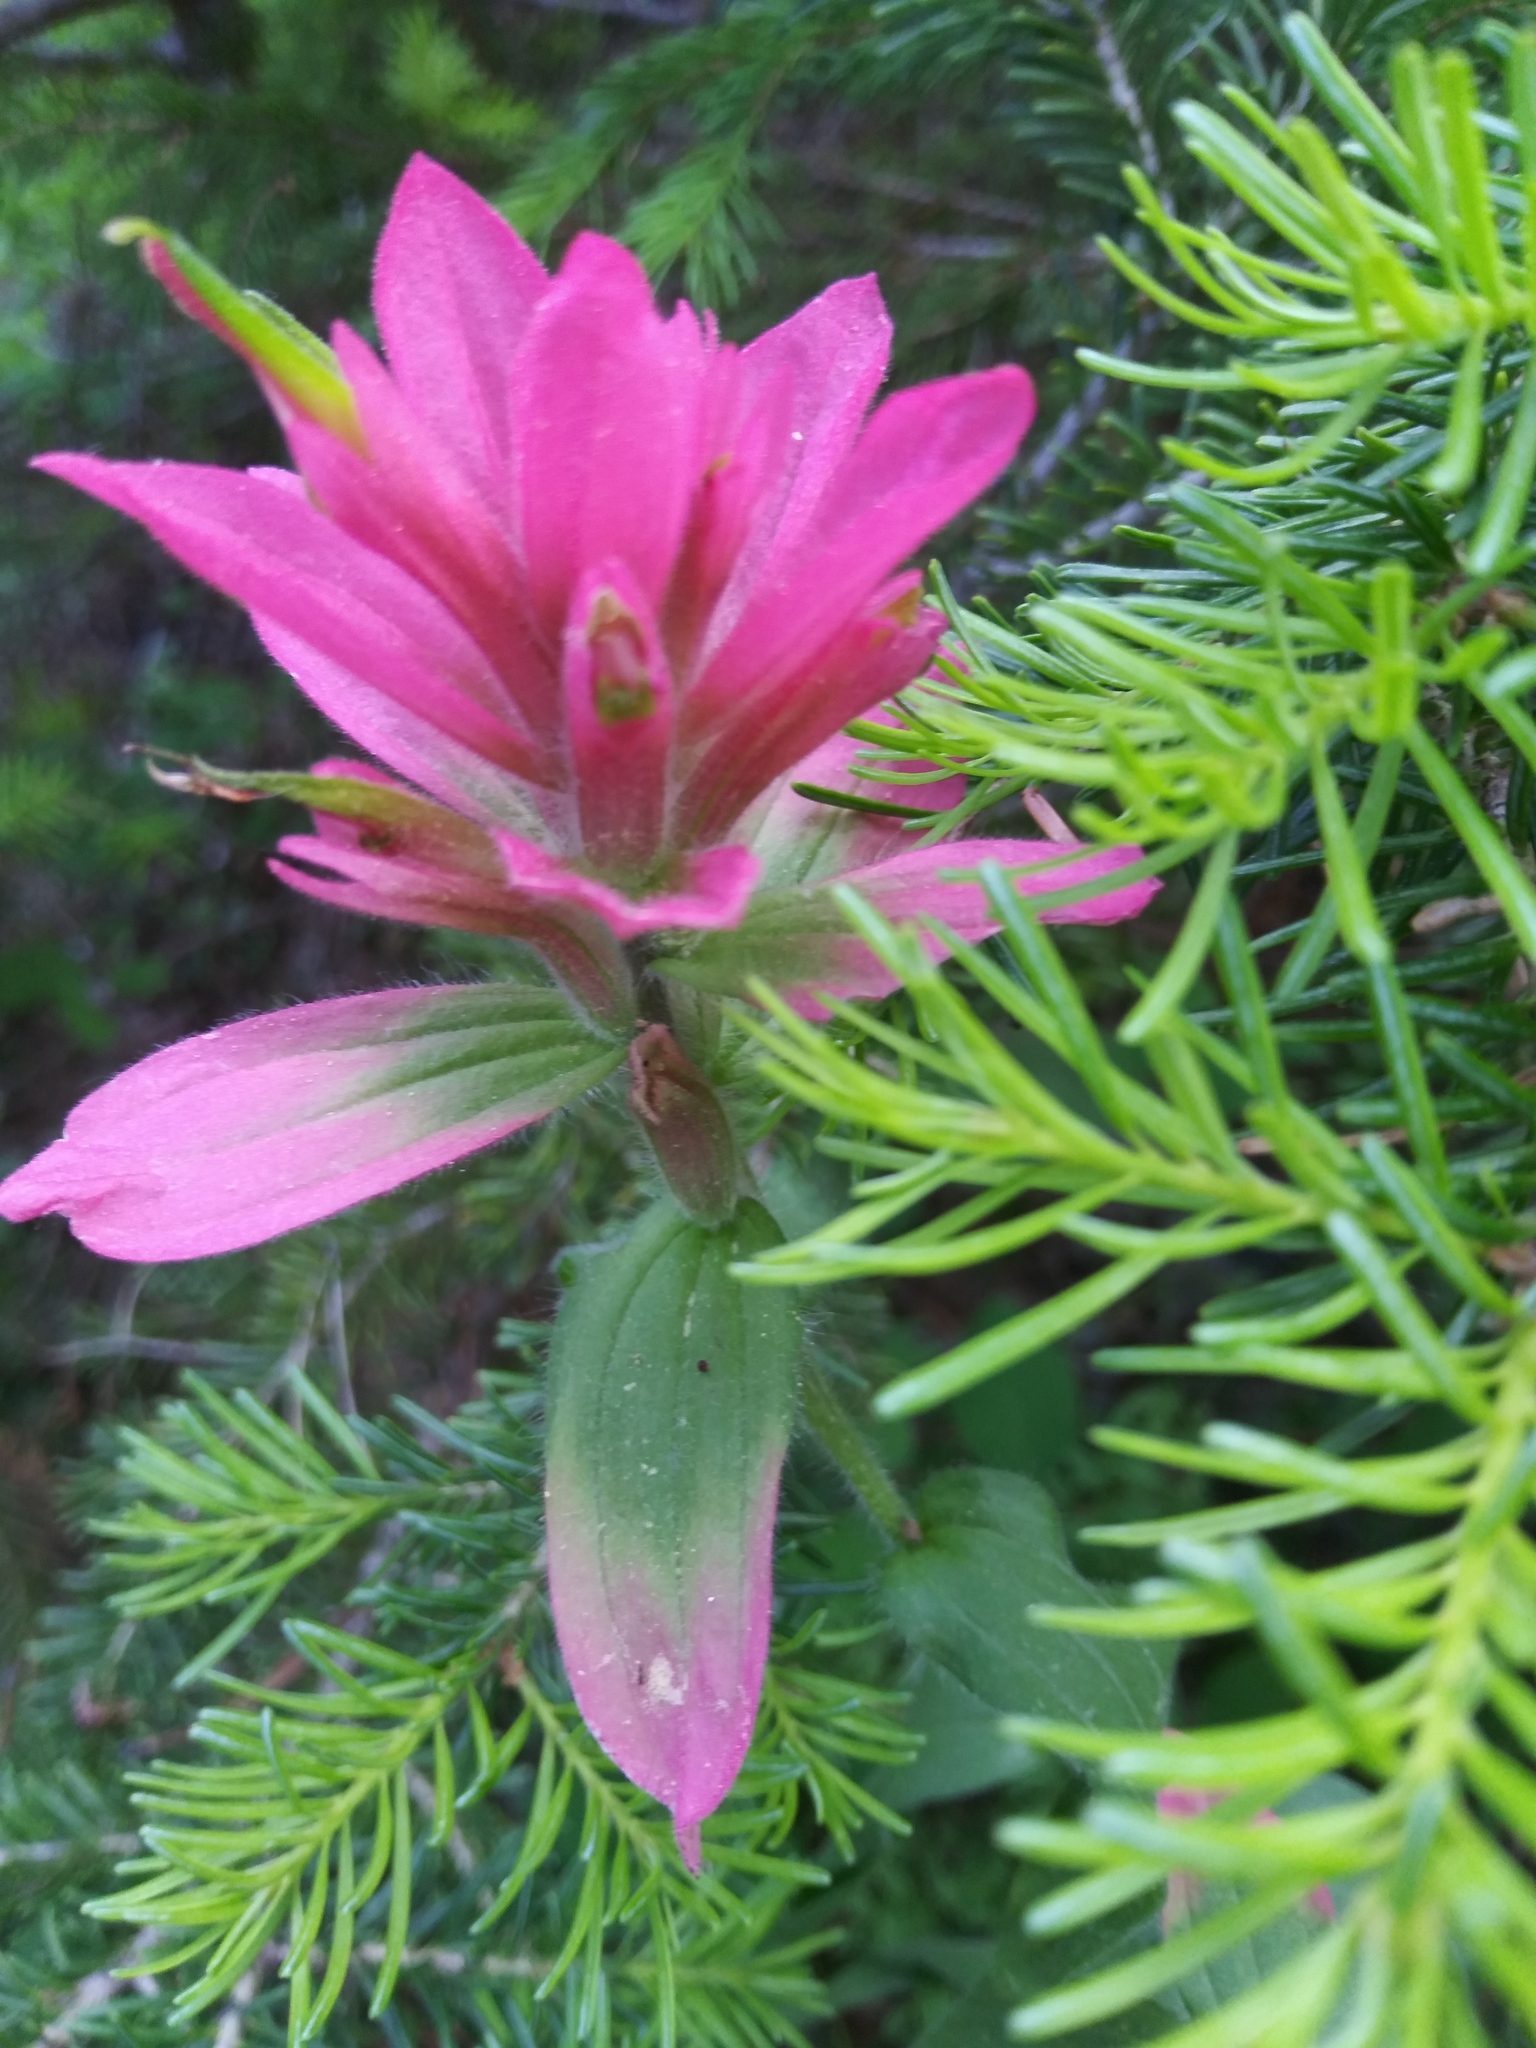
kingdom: Plantae
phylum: Tracheophyta
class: Magnoliopsida
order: Lamiales
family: Orobanchaceae
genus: Castilleja
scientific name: Castilleja rhexifolia
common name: Rocky mountain paintbrush
